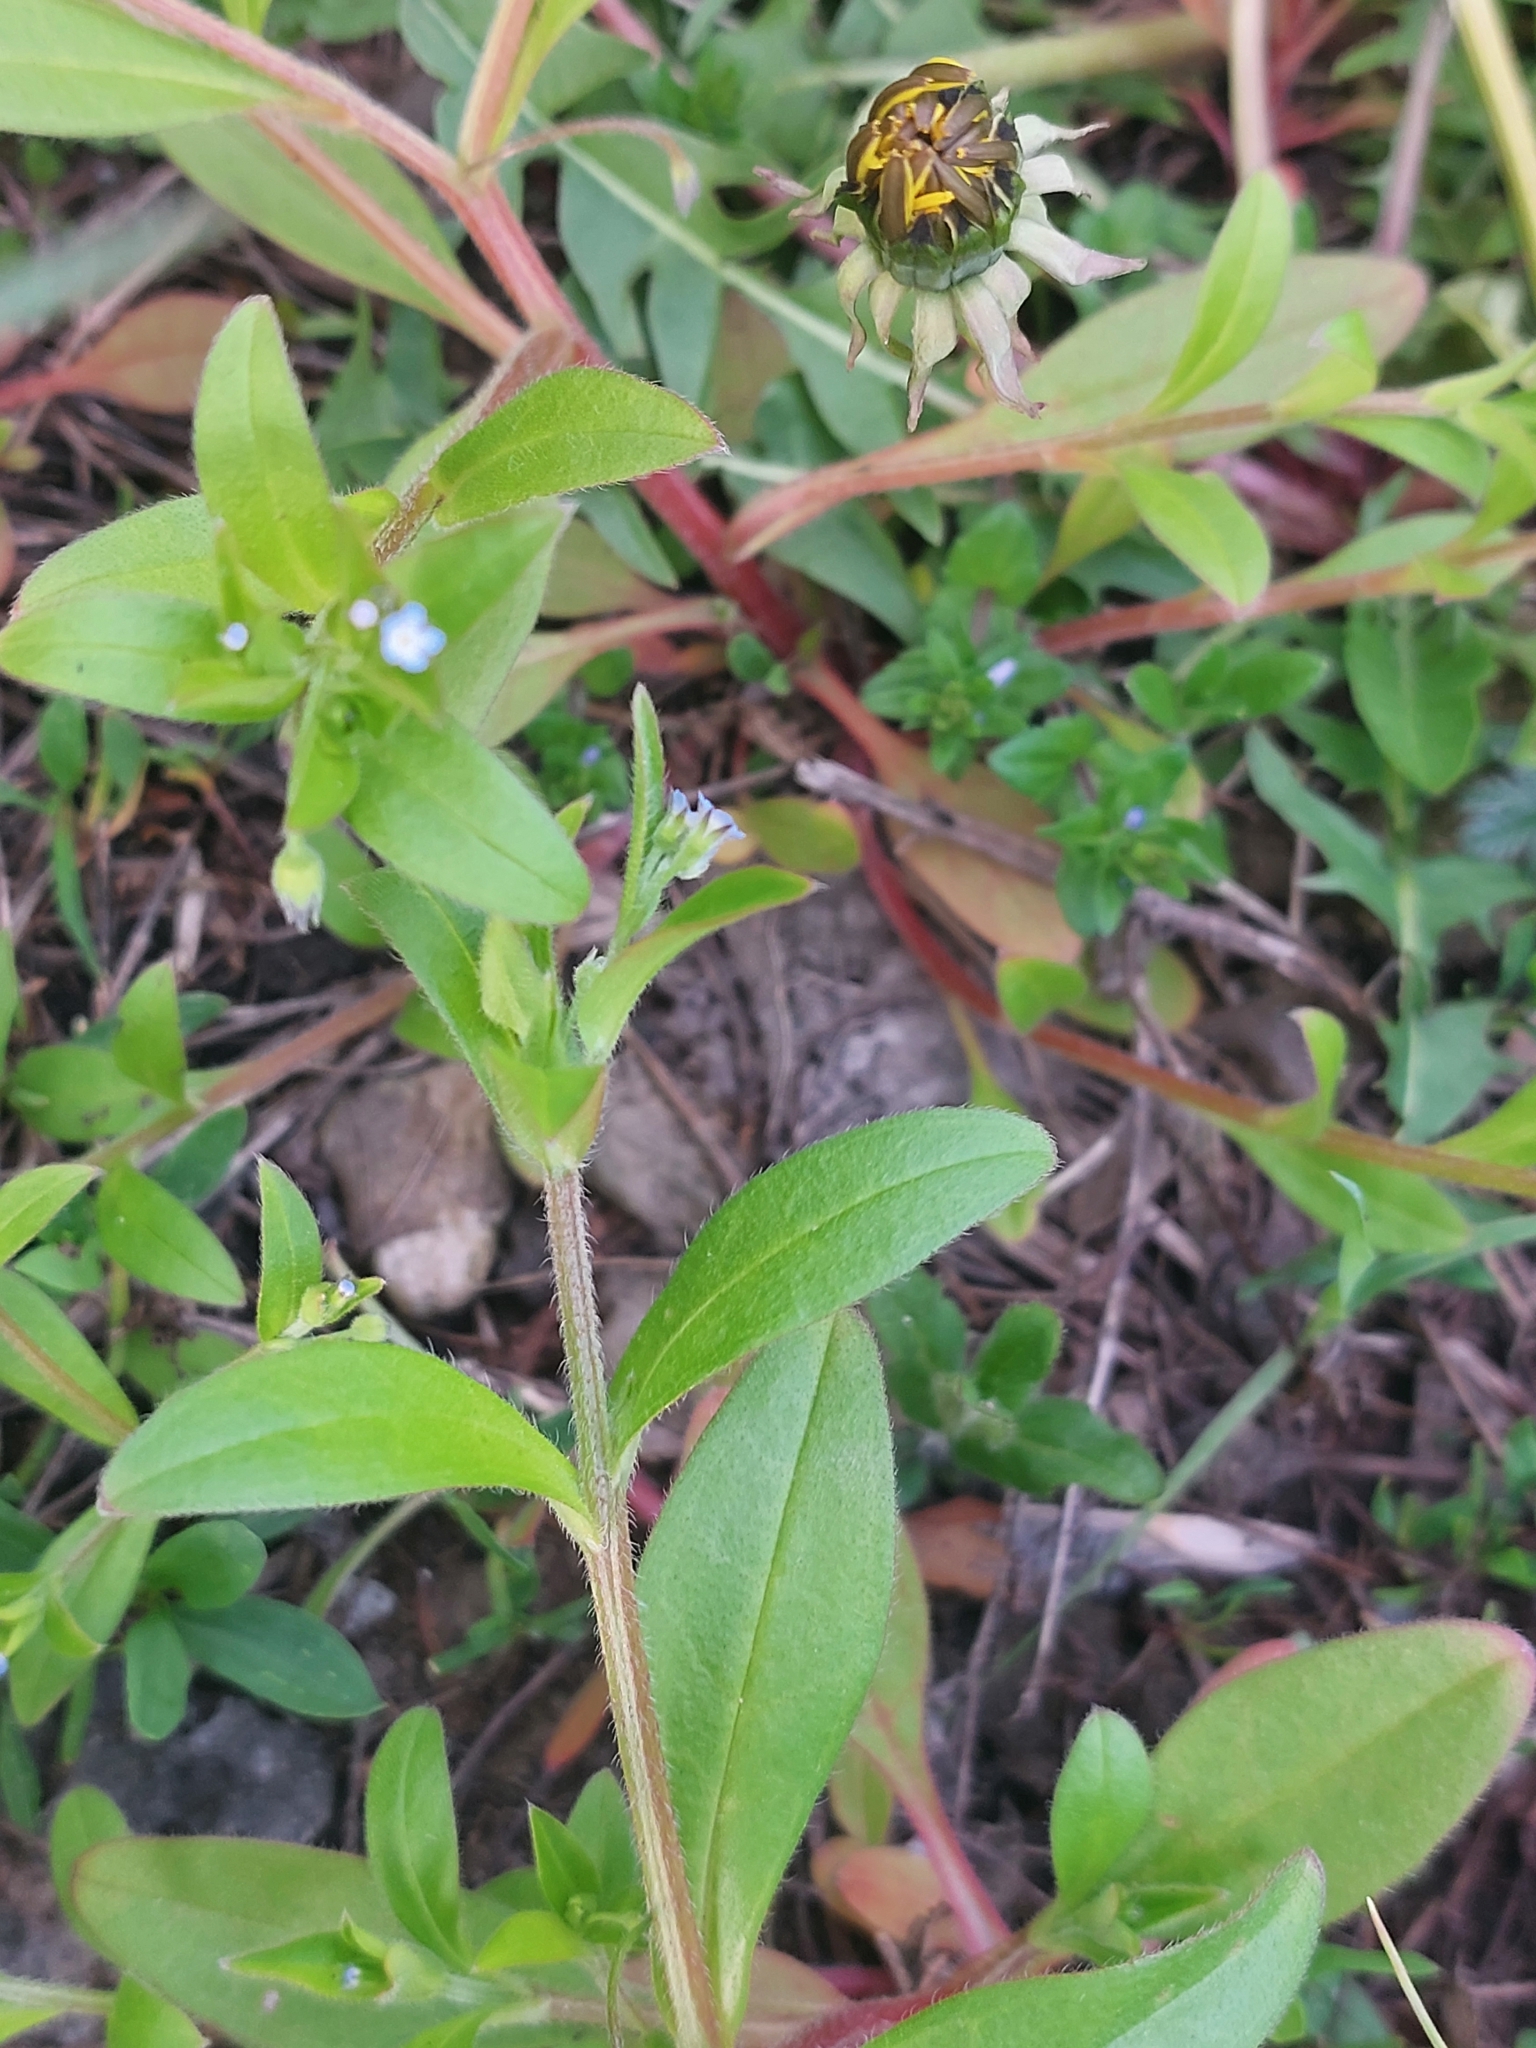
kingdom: Plantae
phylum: Tracheophyta
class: Magnoliopsida
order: Boraginales
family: Boraginaceae
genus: Myosotis
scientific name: Myosotis sparsiflora
